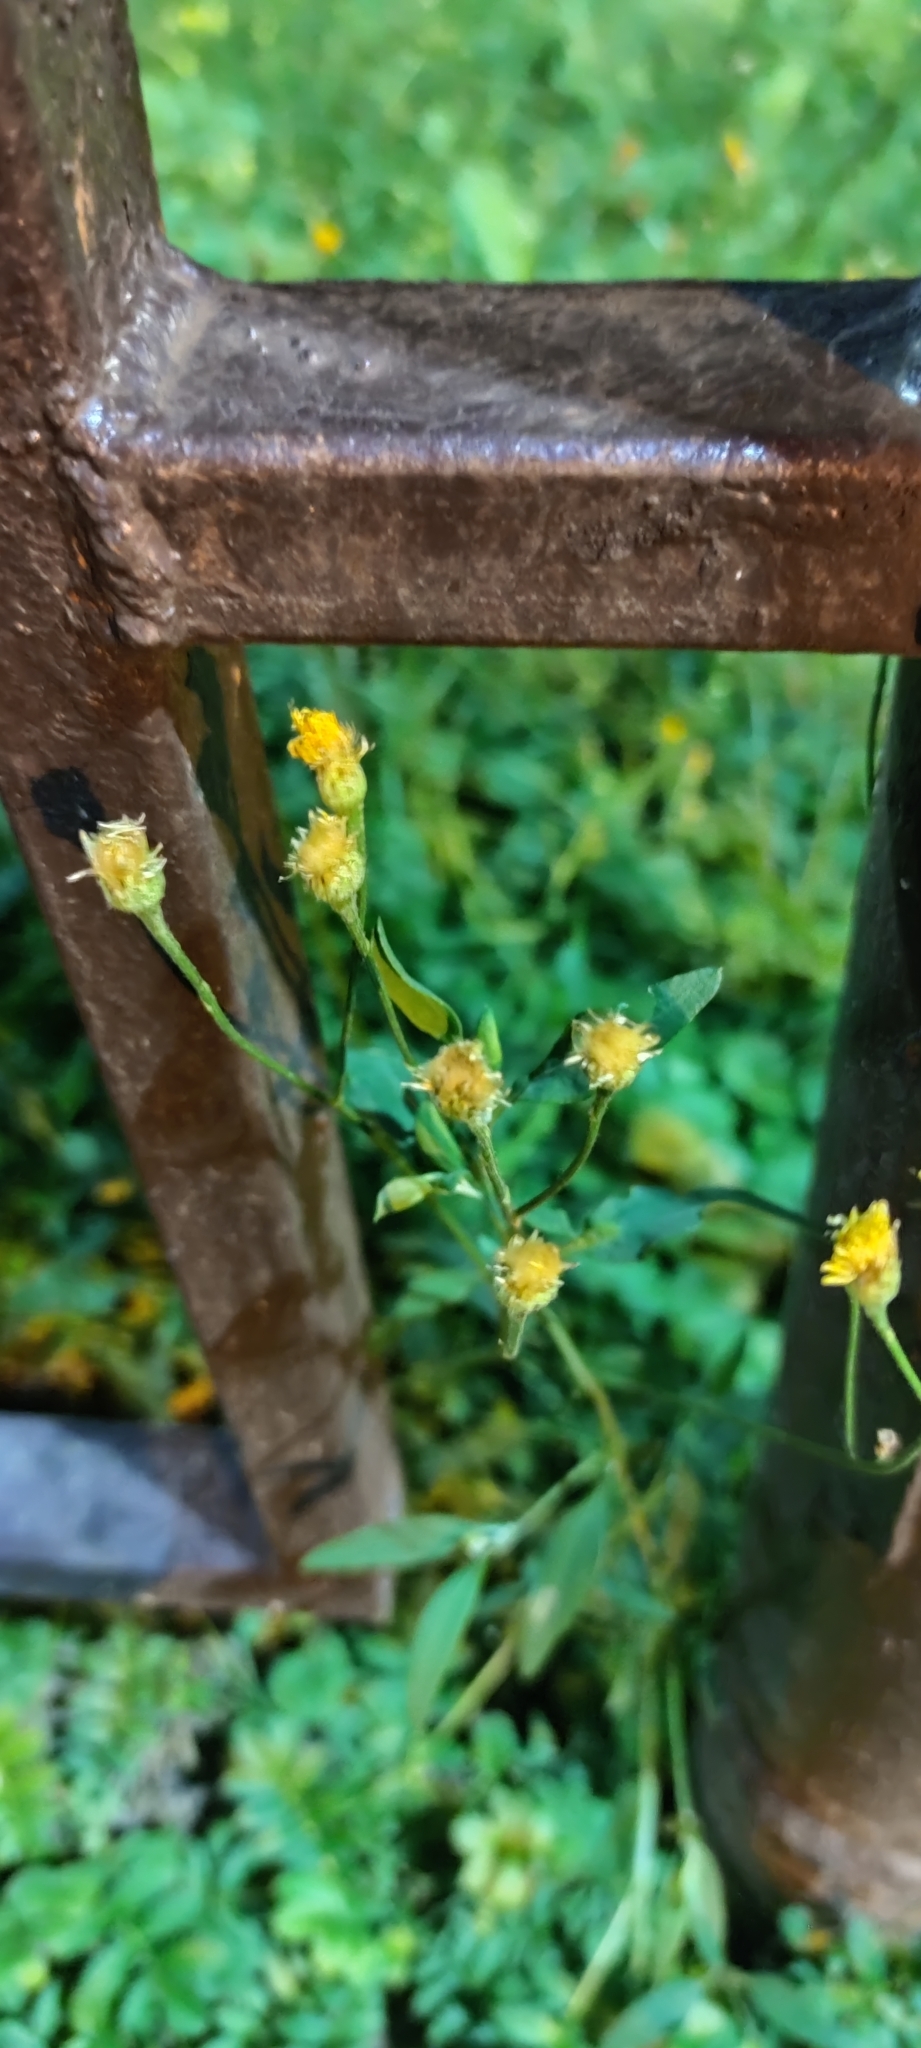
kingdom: Plantae
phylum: Tracheophyta
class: Magnoliopsida
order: Asterales
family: Asteraceae
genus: Scorzoneroides
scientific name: Scorzoneroides autumnalis
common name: Autumn hawkbit
